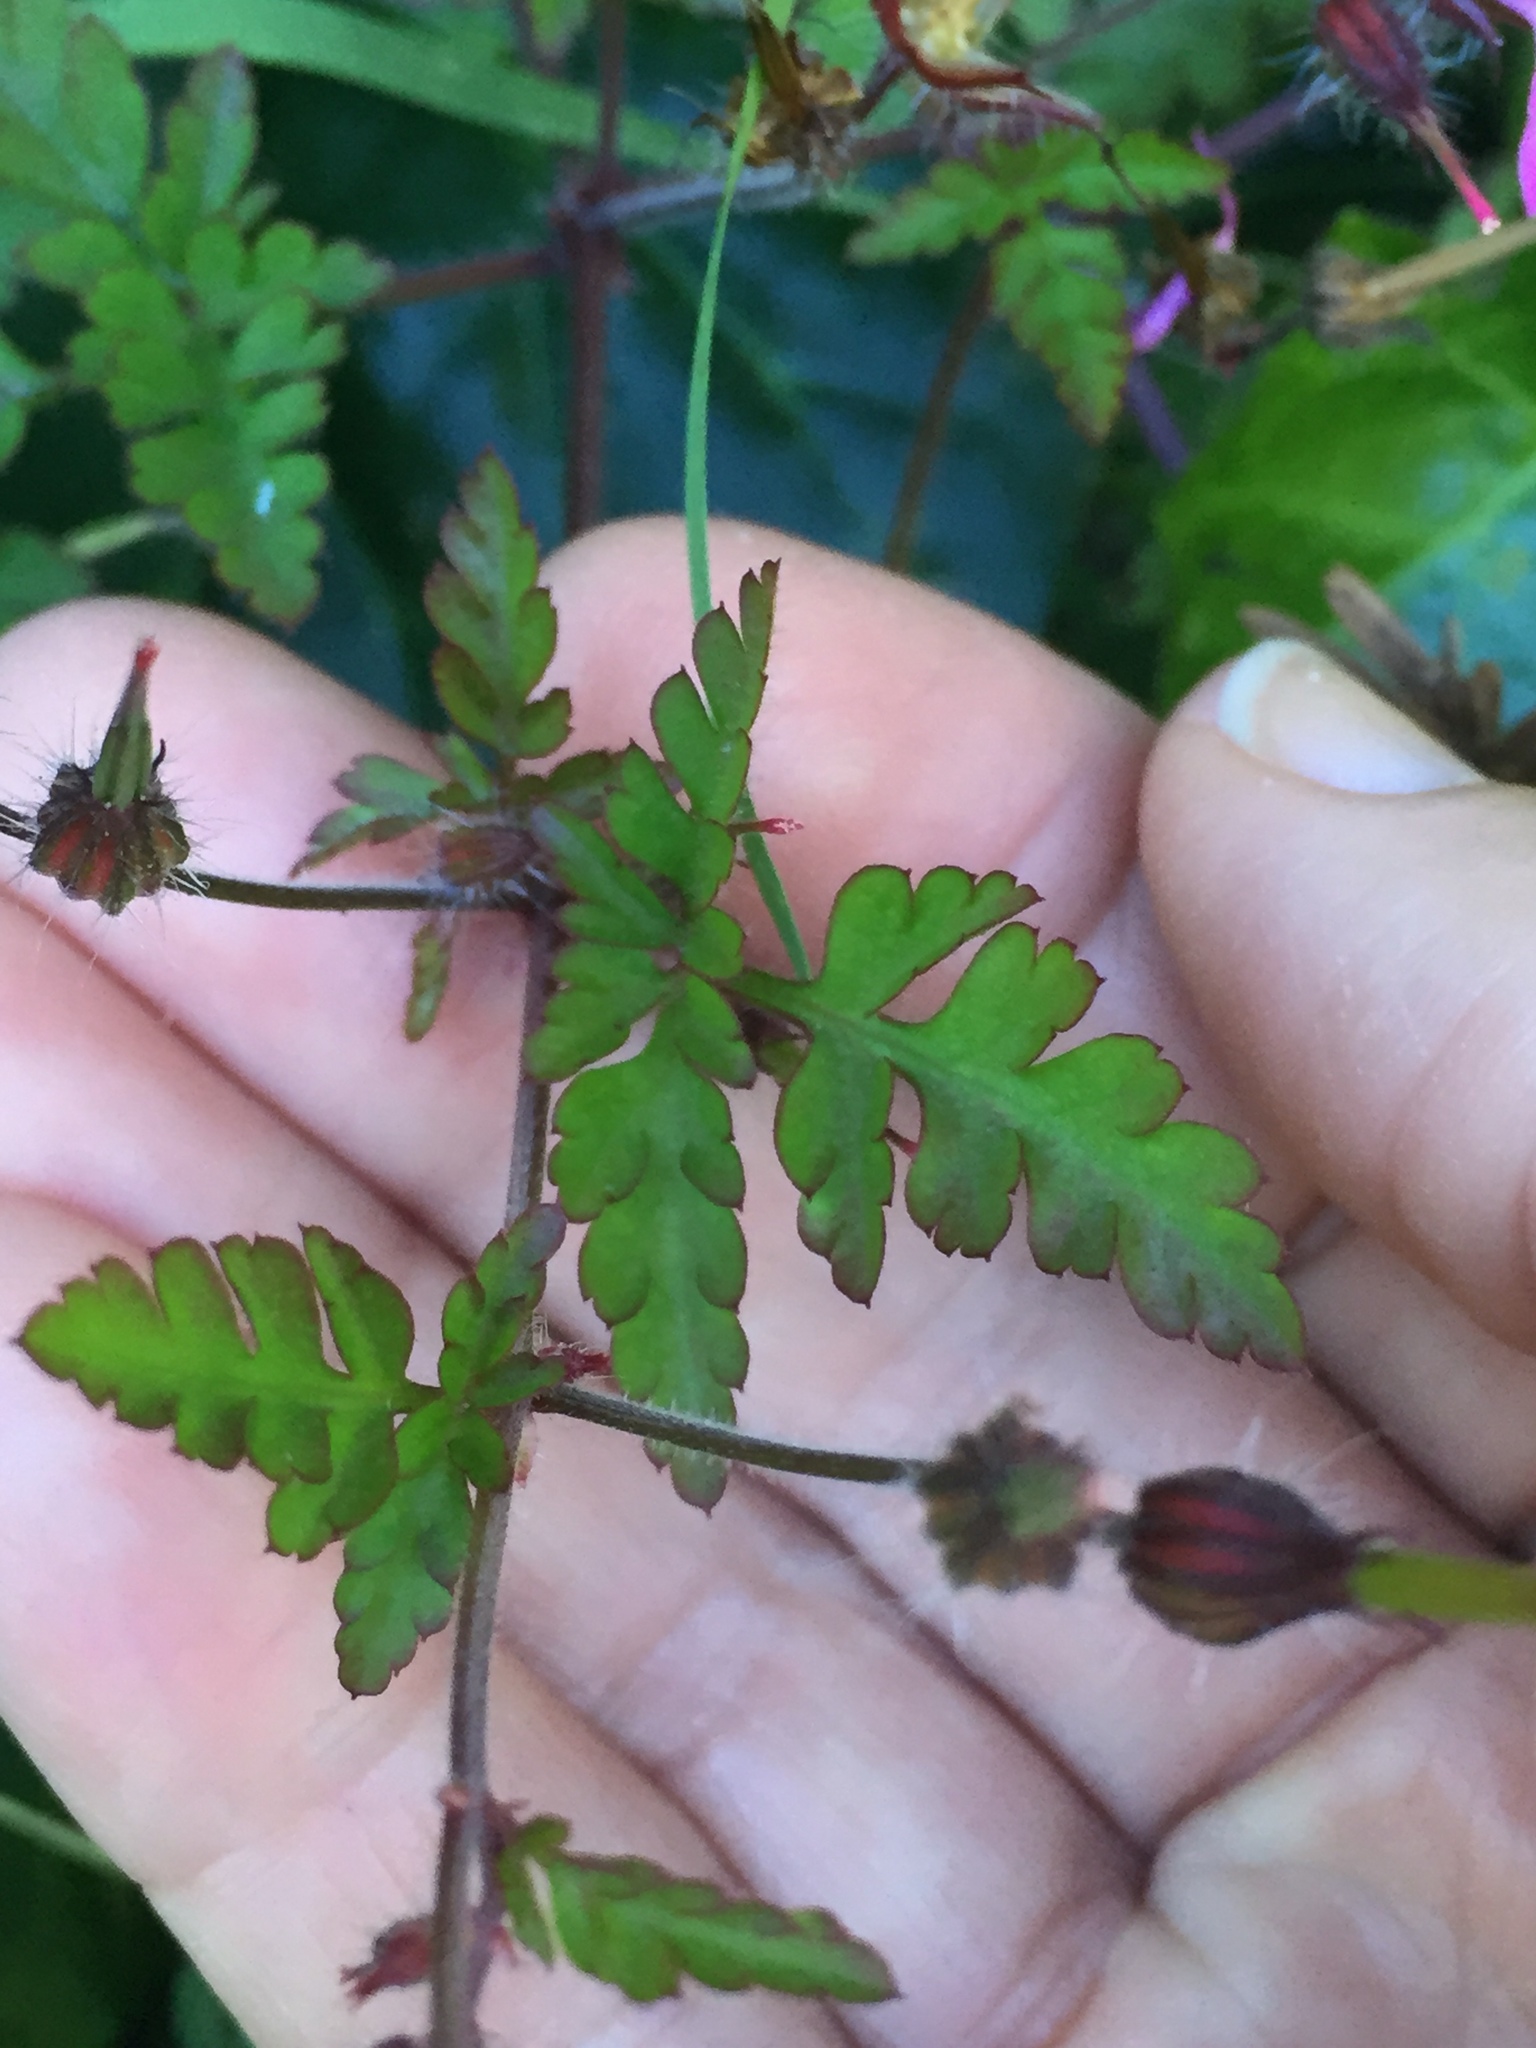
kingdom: Plantae
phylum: Tracheophyta
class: Magnoliopsida
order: Geraniales
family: Geraniaceae
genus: Geranium
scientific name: Geranium robertianum
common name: Herb-robert
